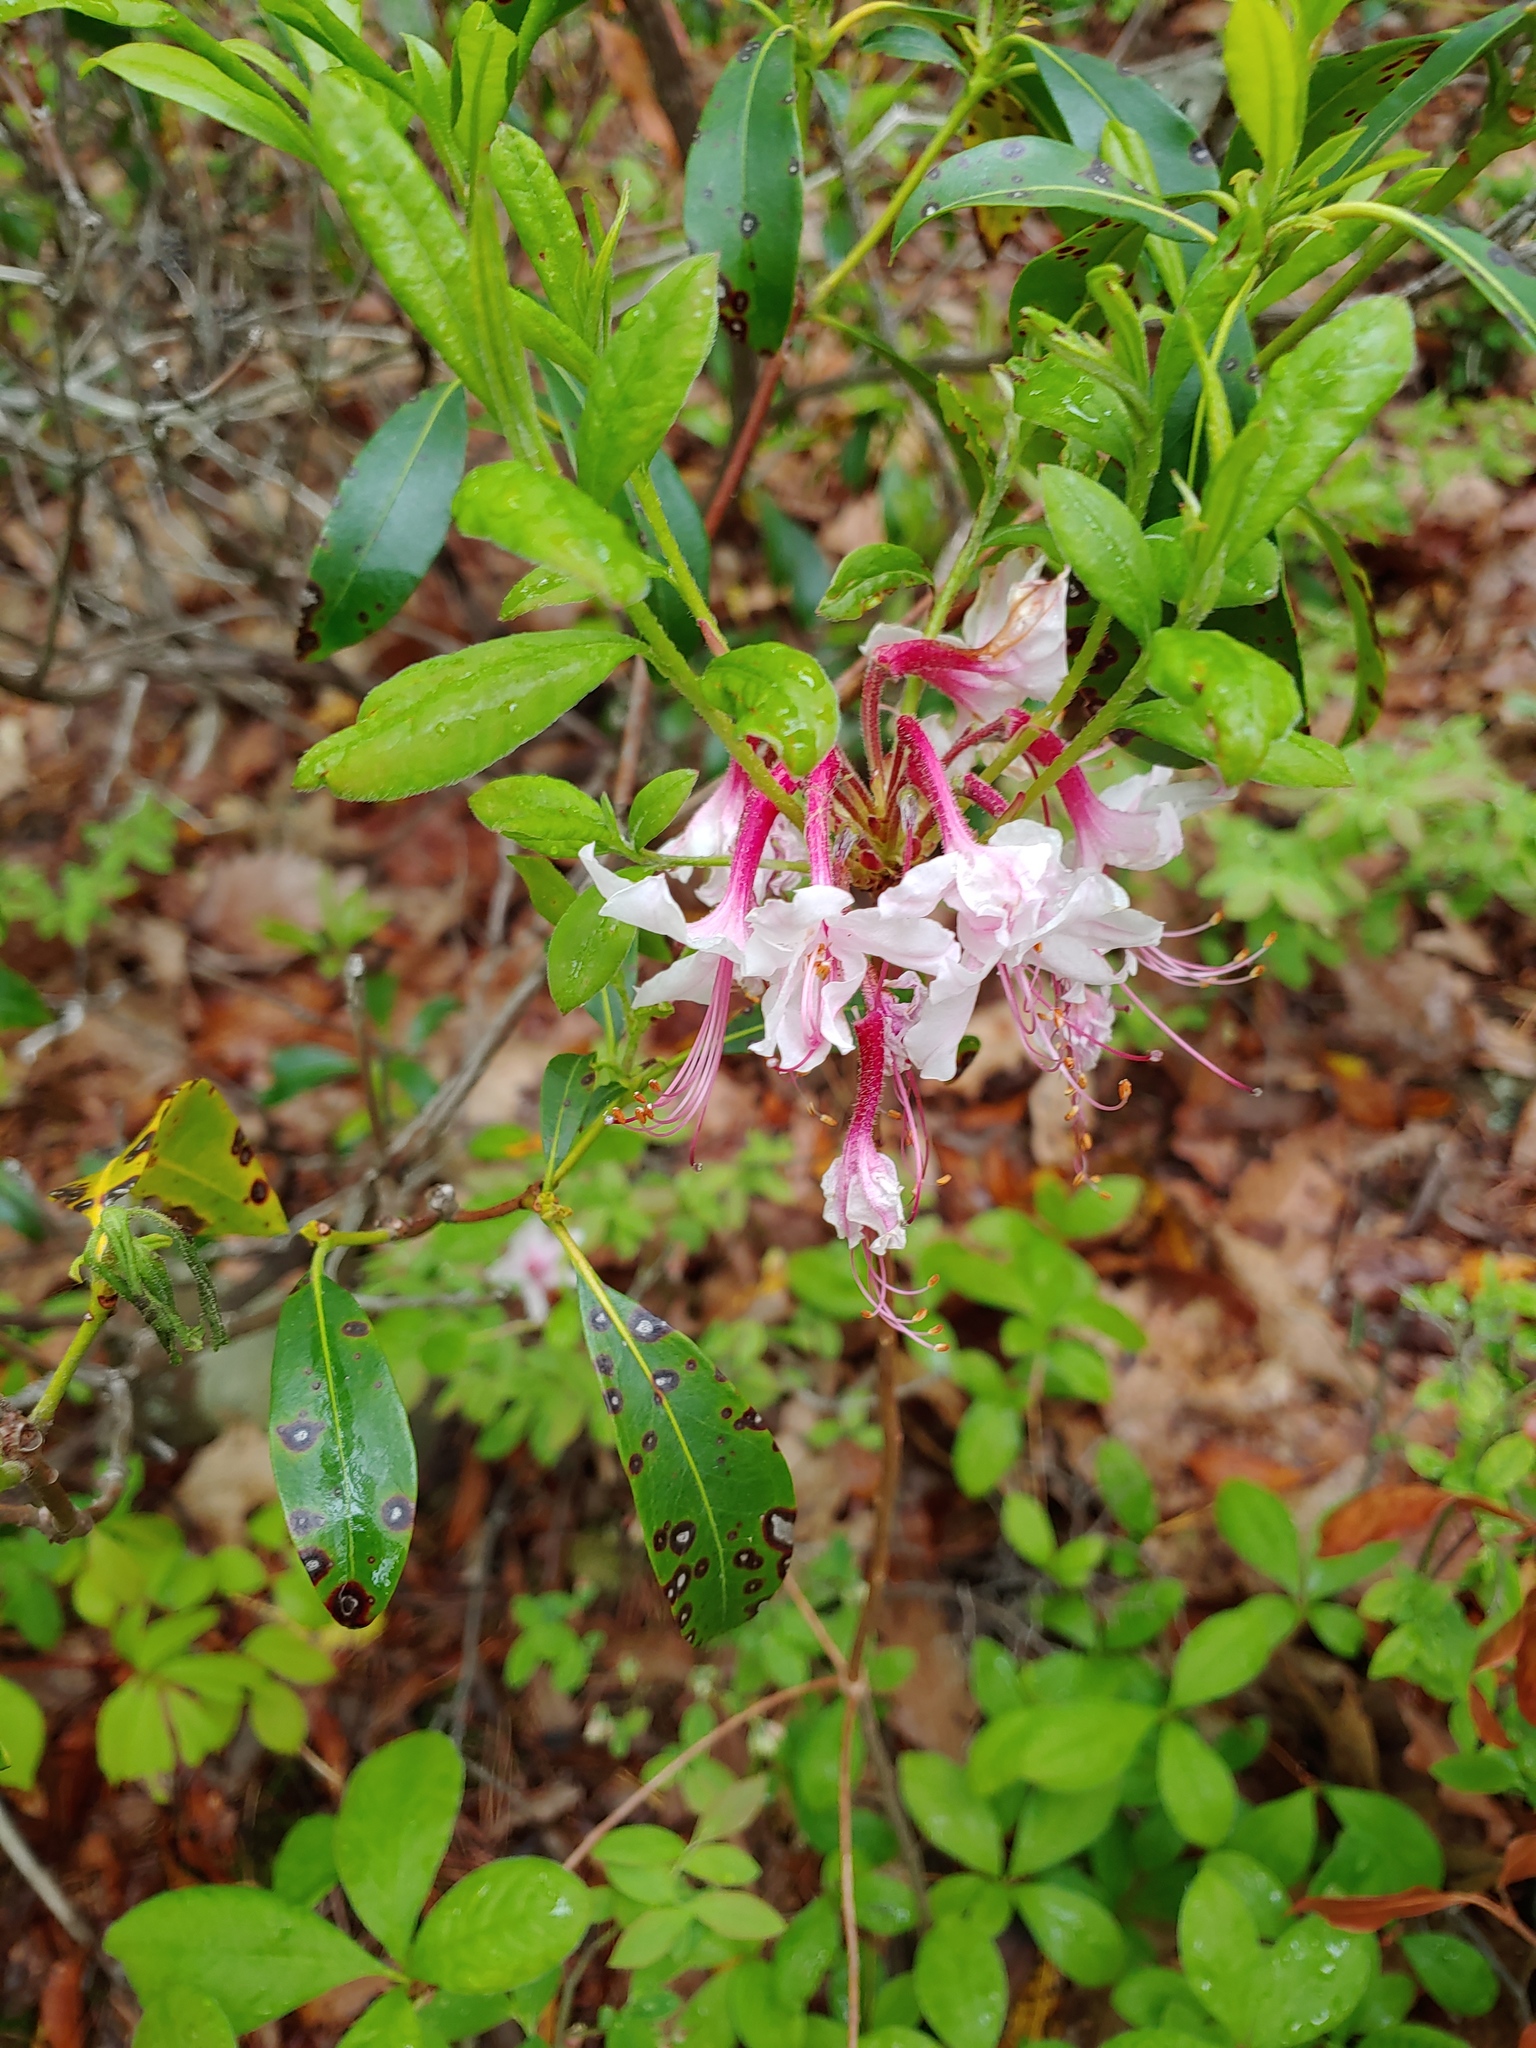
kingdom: Plantae
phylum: Tracheophyta
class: Magnoliopsida
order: Ericales
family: Ericaceae
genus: Rhododendron
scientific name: Rhododendron periclymenoides
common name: Election-pink
